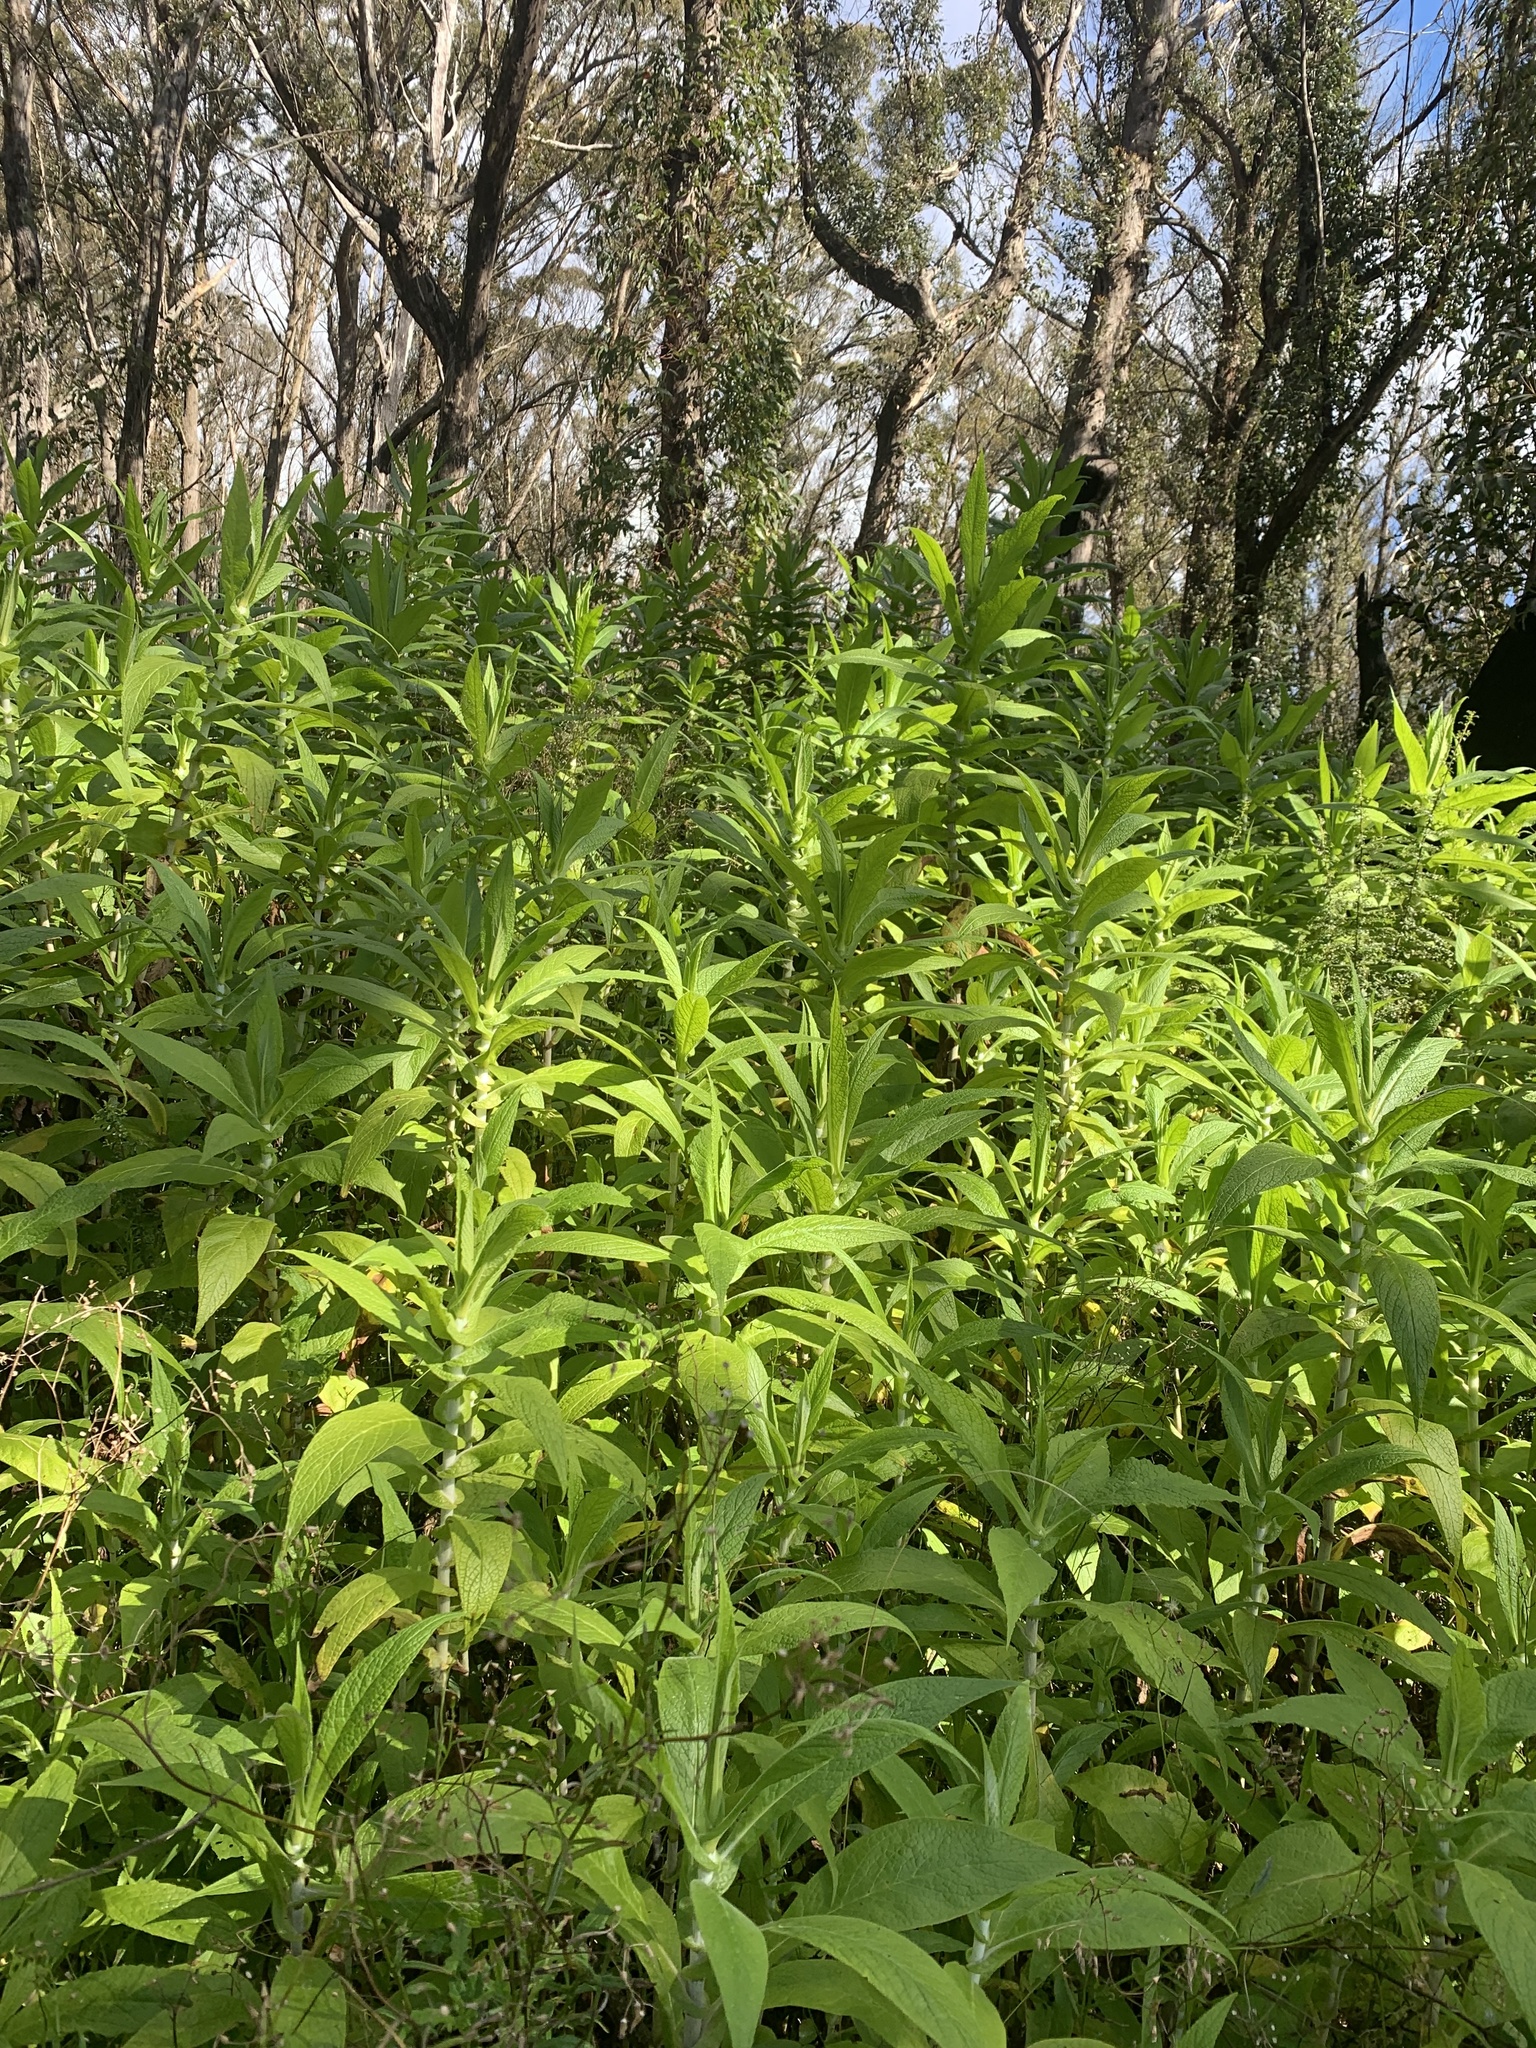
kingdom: Plantae
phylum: Tracheophyta
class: Magnoliopsida
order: Asterales
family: Asteraceae
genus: Calomeria
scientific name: Calomeria amaranthoides
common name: Incenseplant
